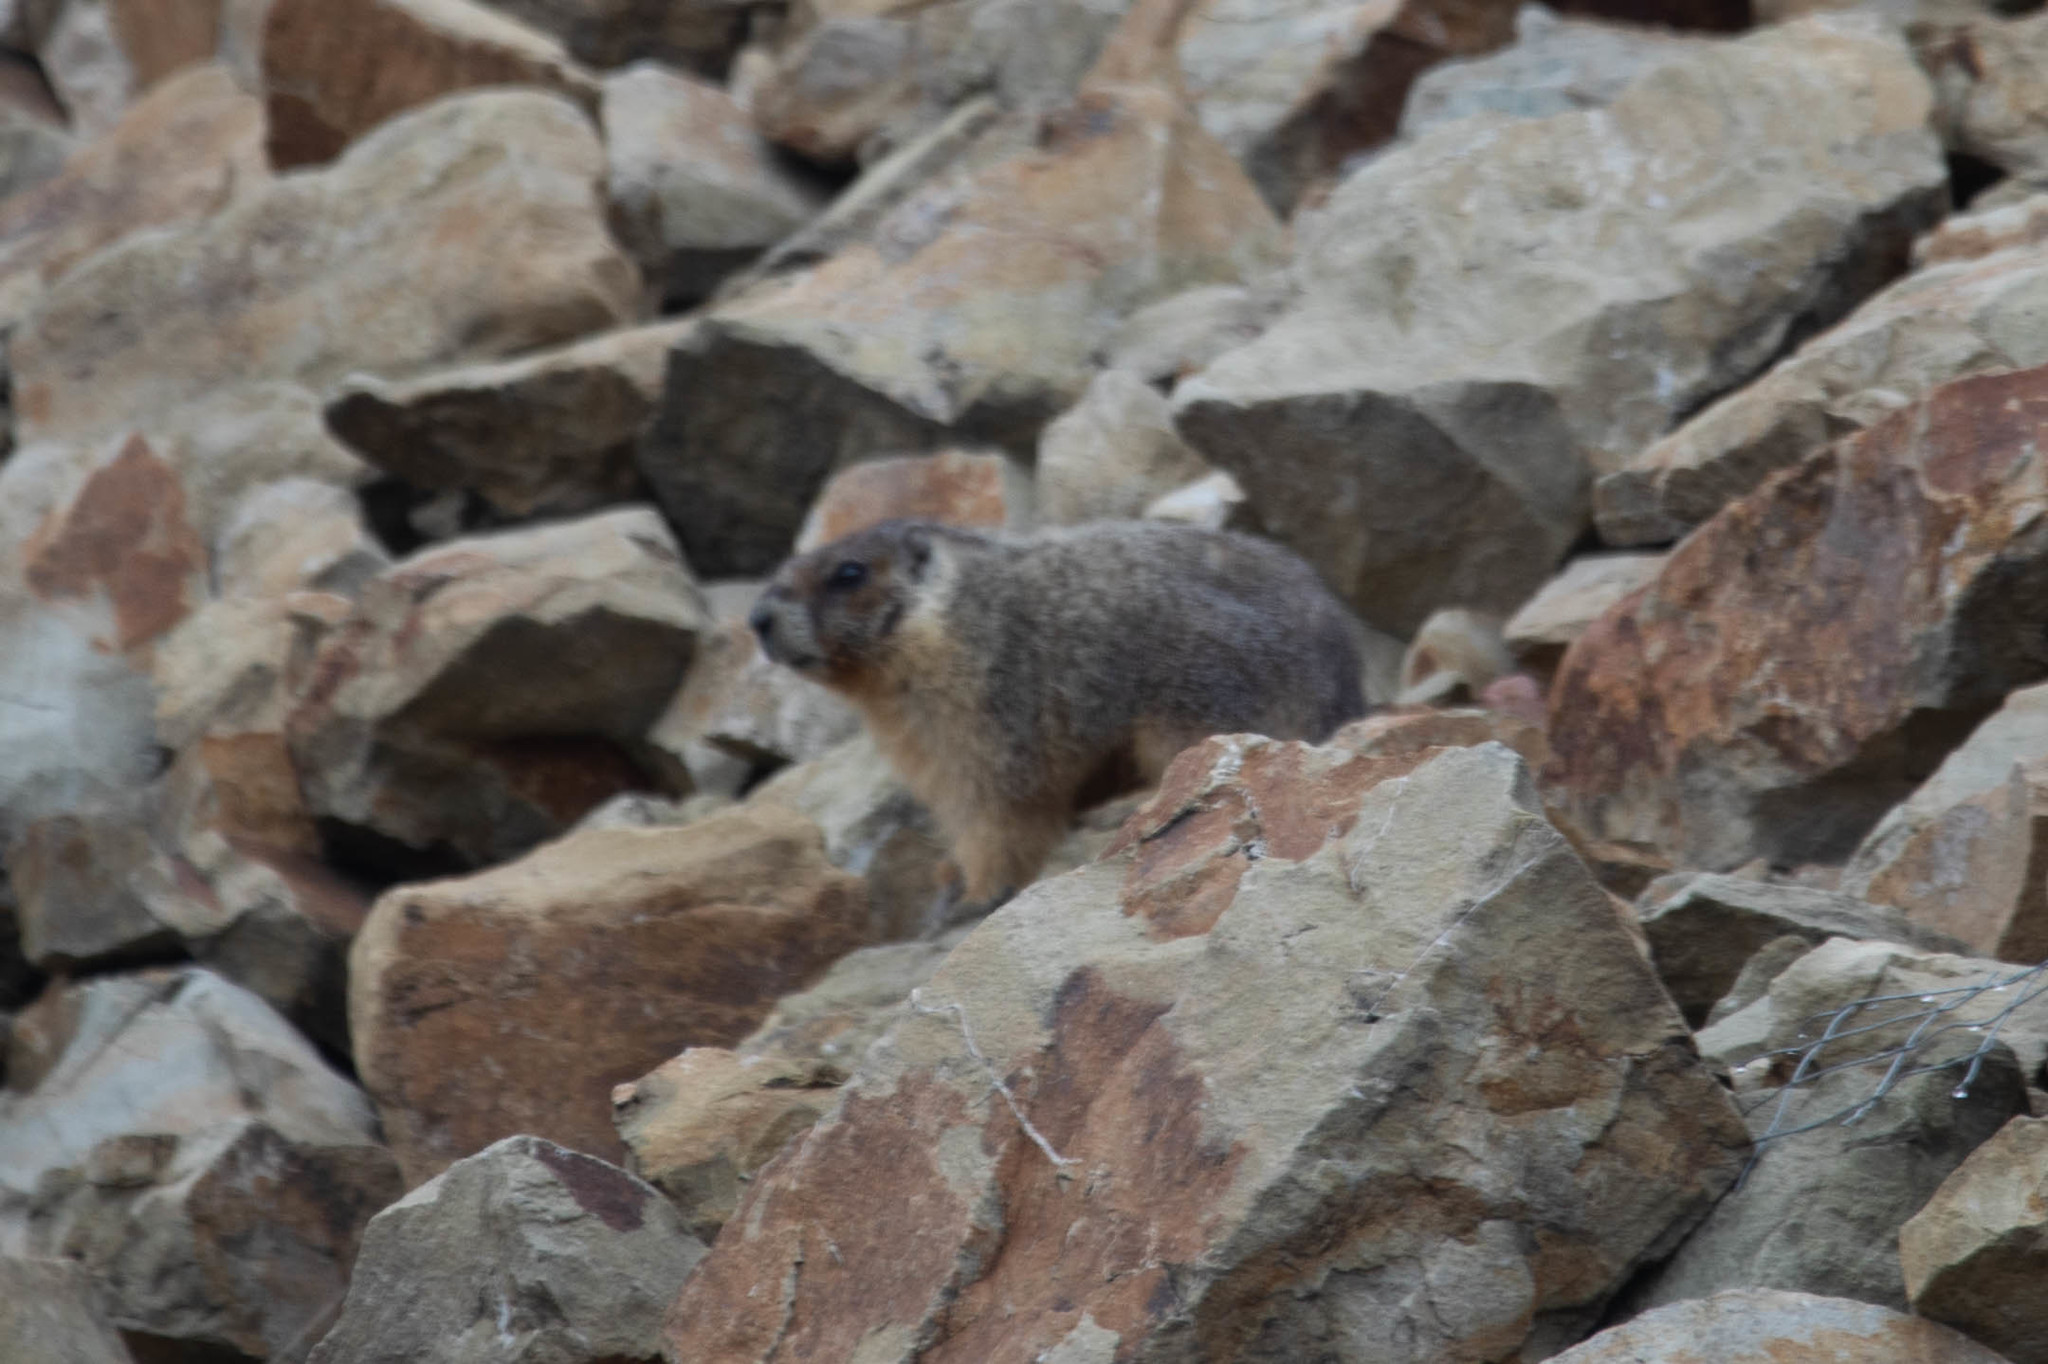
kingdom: Animalia
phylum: Chordata
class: Mammalia
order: Rodentia
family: Sciuridae
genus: Marmota
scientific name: Marmota flaviventris
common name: Yellow-bellied marmot
